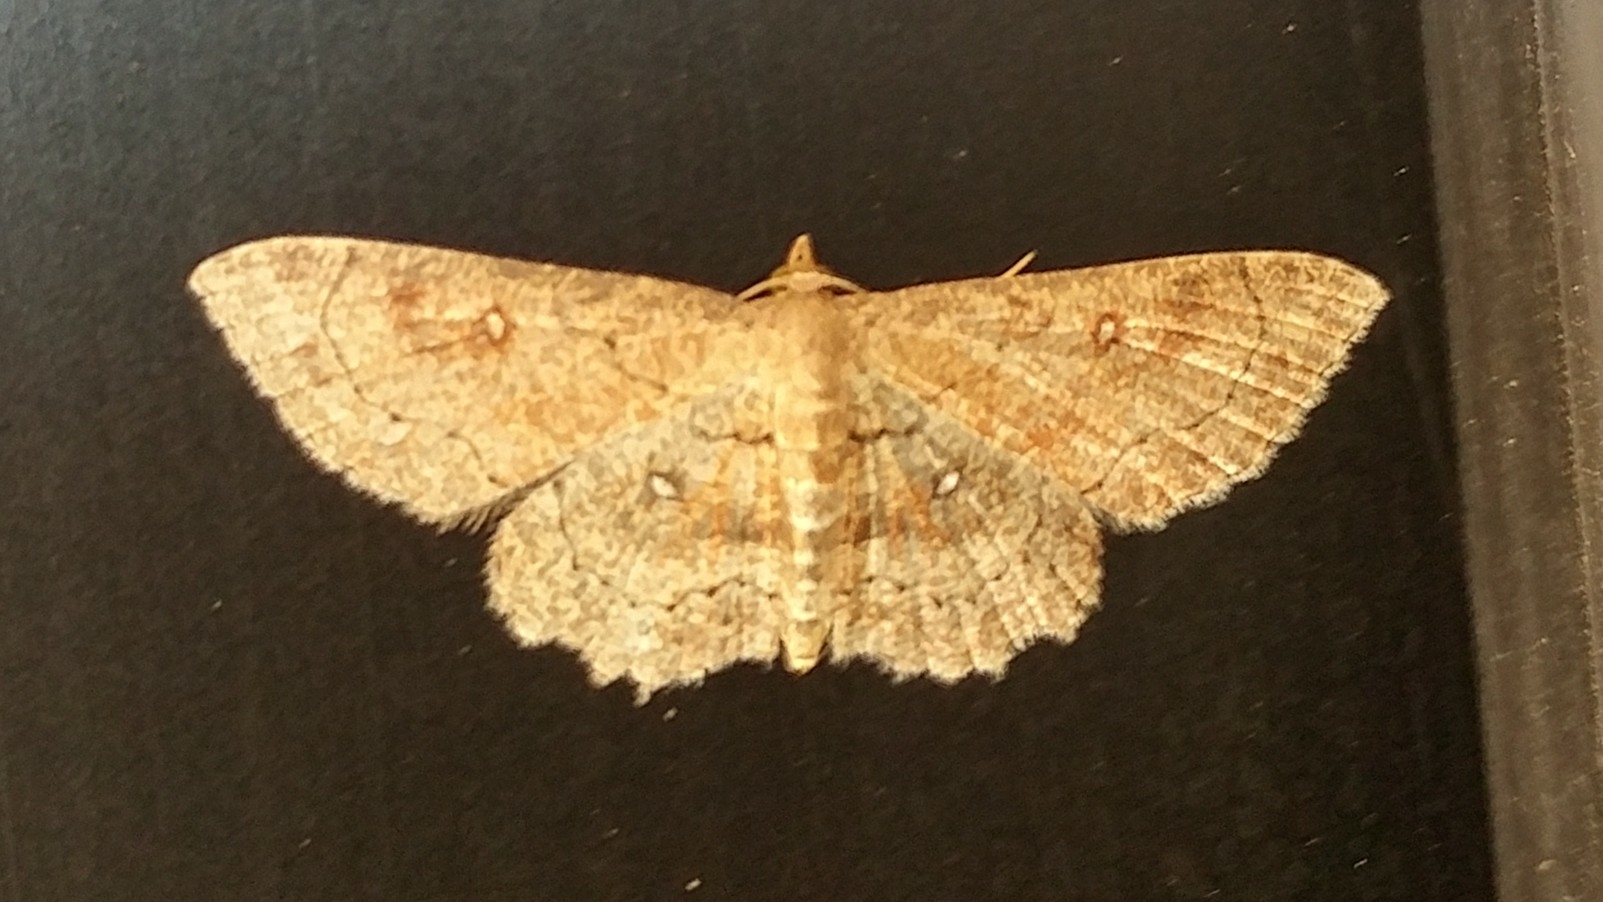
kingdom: Animalia
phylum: Arthropoda
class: Insecta
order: Lepidoptera
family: Geometridae
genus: Cyclophora
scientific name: Cyclophora nanaria
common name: Cankerworm
